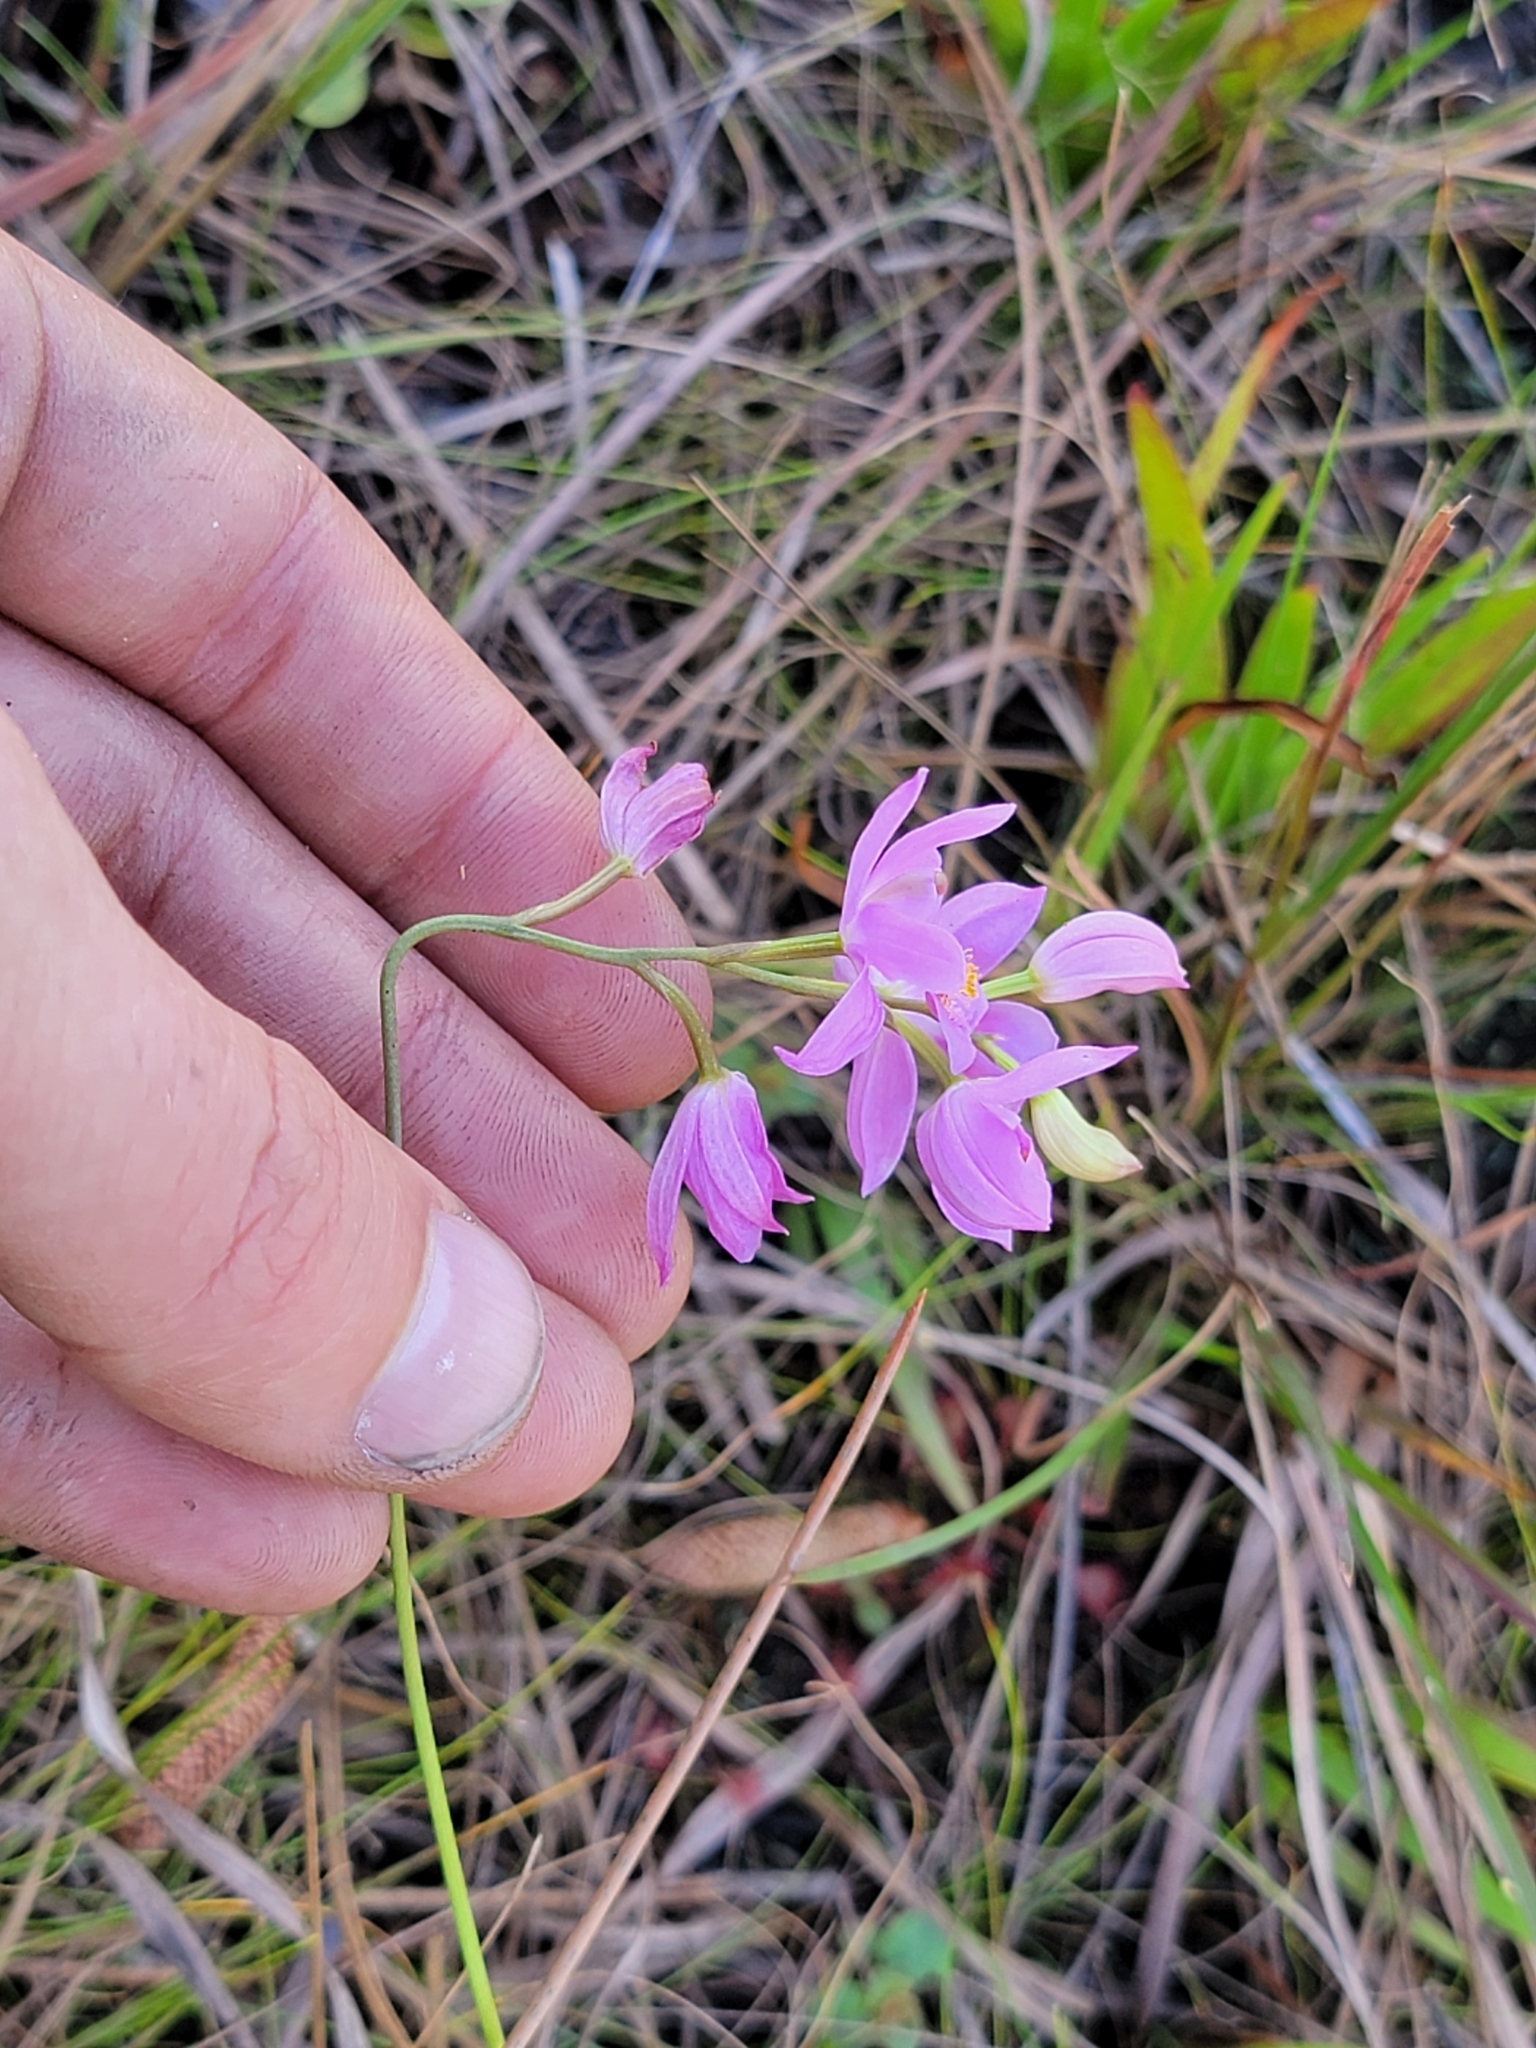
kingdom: Plantae
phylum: Tracheophyta
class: Liliopsida
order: Asparagales
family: Orchidaceae
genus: Calopogon
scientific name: Calopogon barbatus
